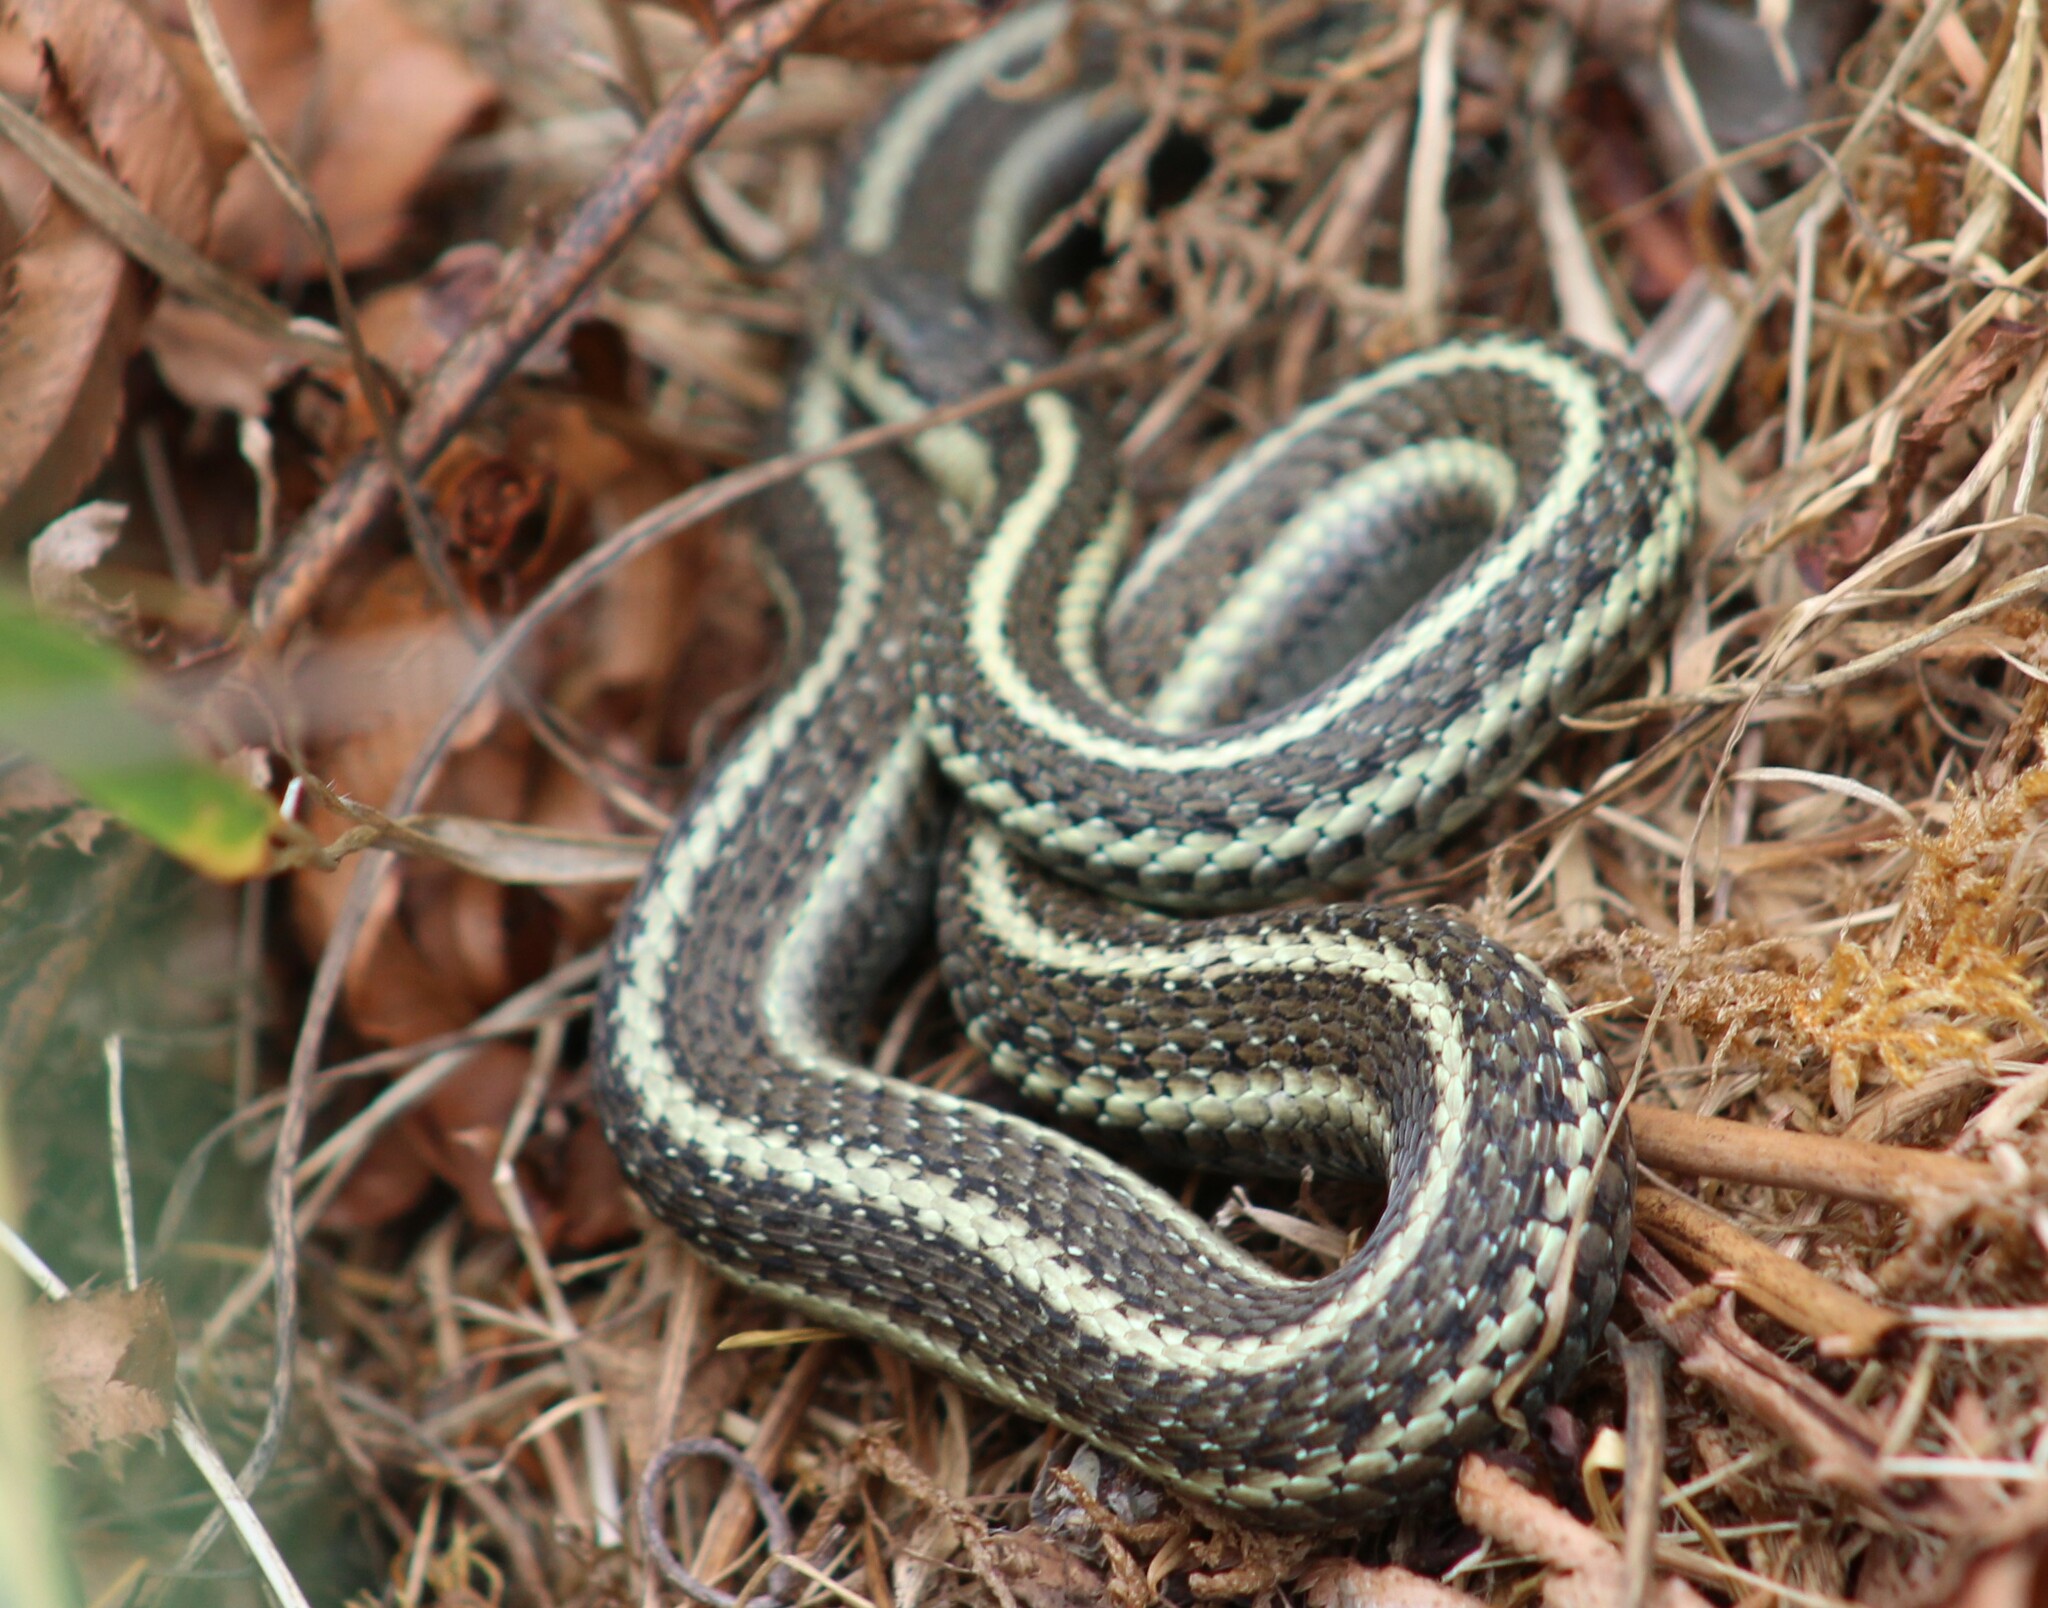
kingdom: Animalia
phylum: Chordata
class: Squamata
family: Colubridae
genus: Thamnophis
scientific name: Thamnophis ordinoides
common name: Northwestern garter snake
